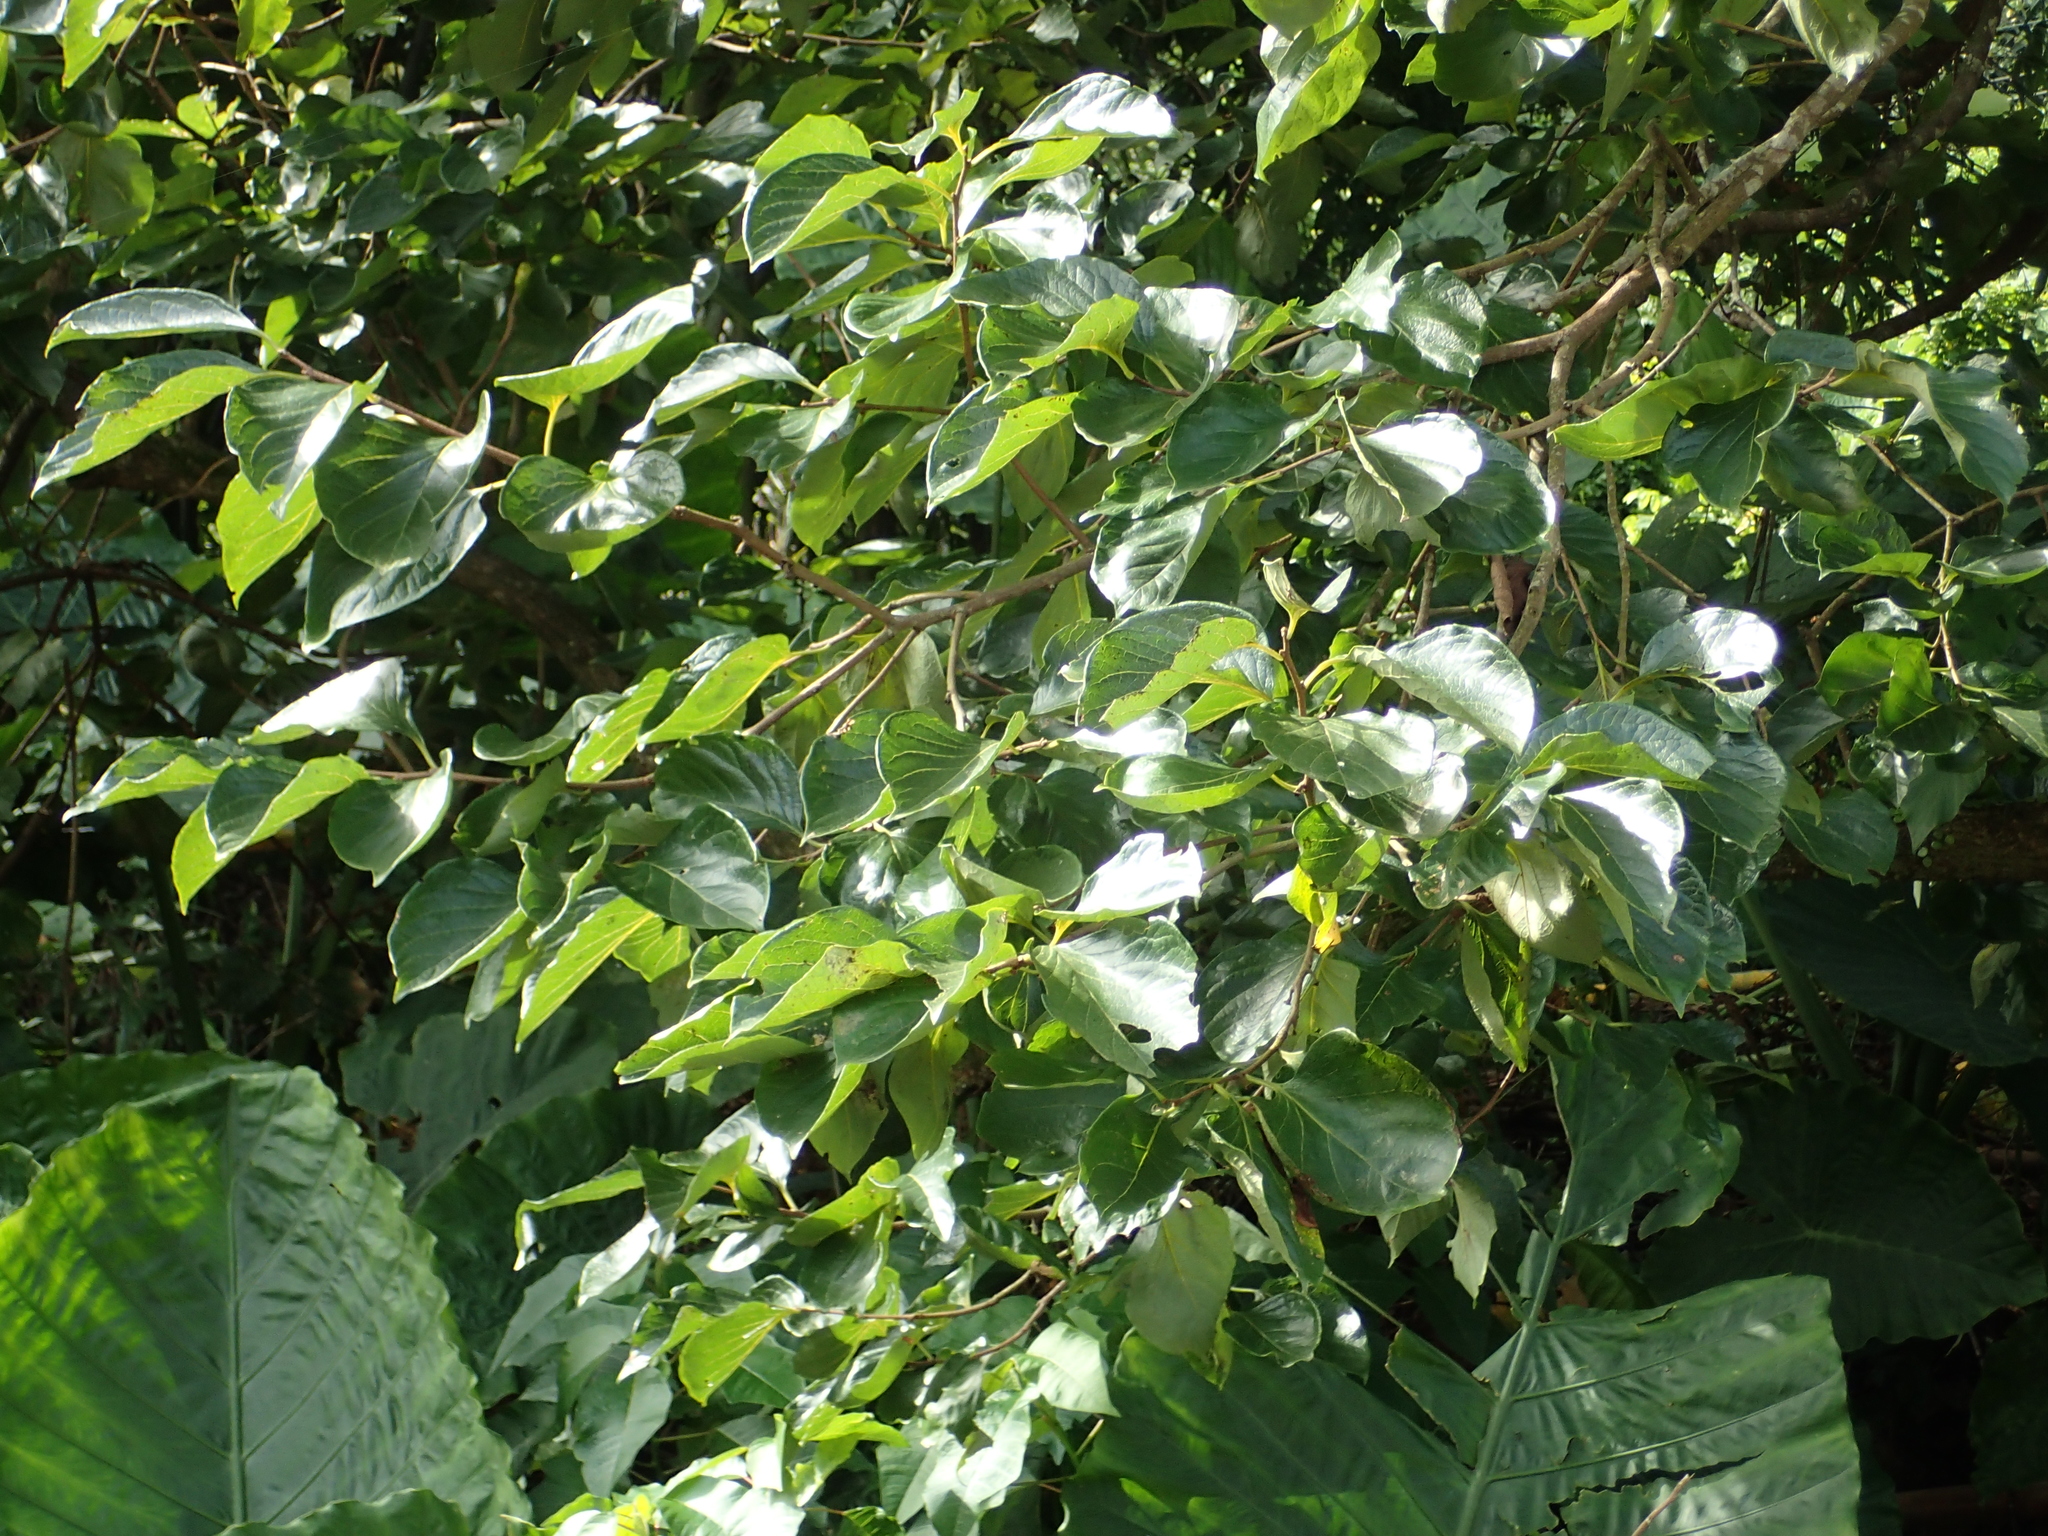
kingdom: Plantae
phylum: Tracheophyta
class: Magnoliopsida
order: Ericales
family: Ebenaceae
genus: Diospyros
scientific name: Diospyros kaki
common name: Persimmon
